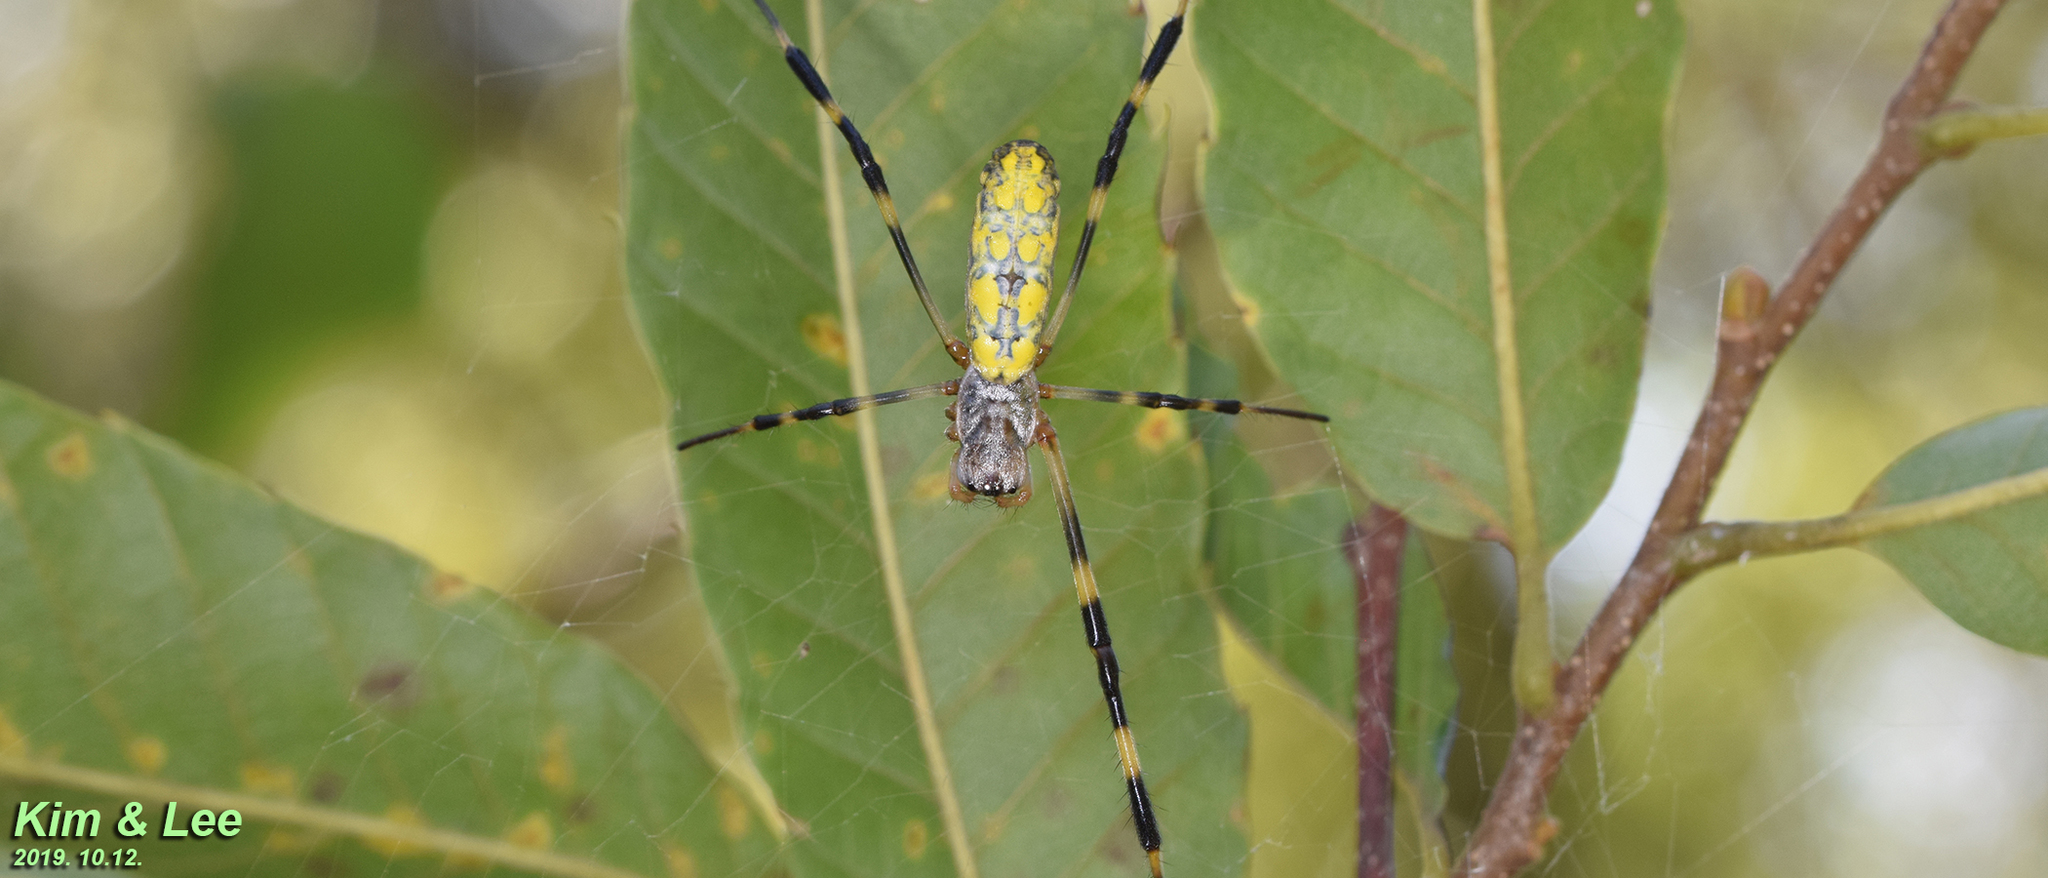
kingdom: Animalia
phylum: Arthropoda
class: Arachnida
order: Araneae
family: Araneidae
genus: Trichonephila
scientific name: Trichonephila clavata
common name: Jorō spider
